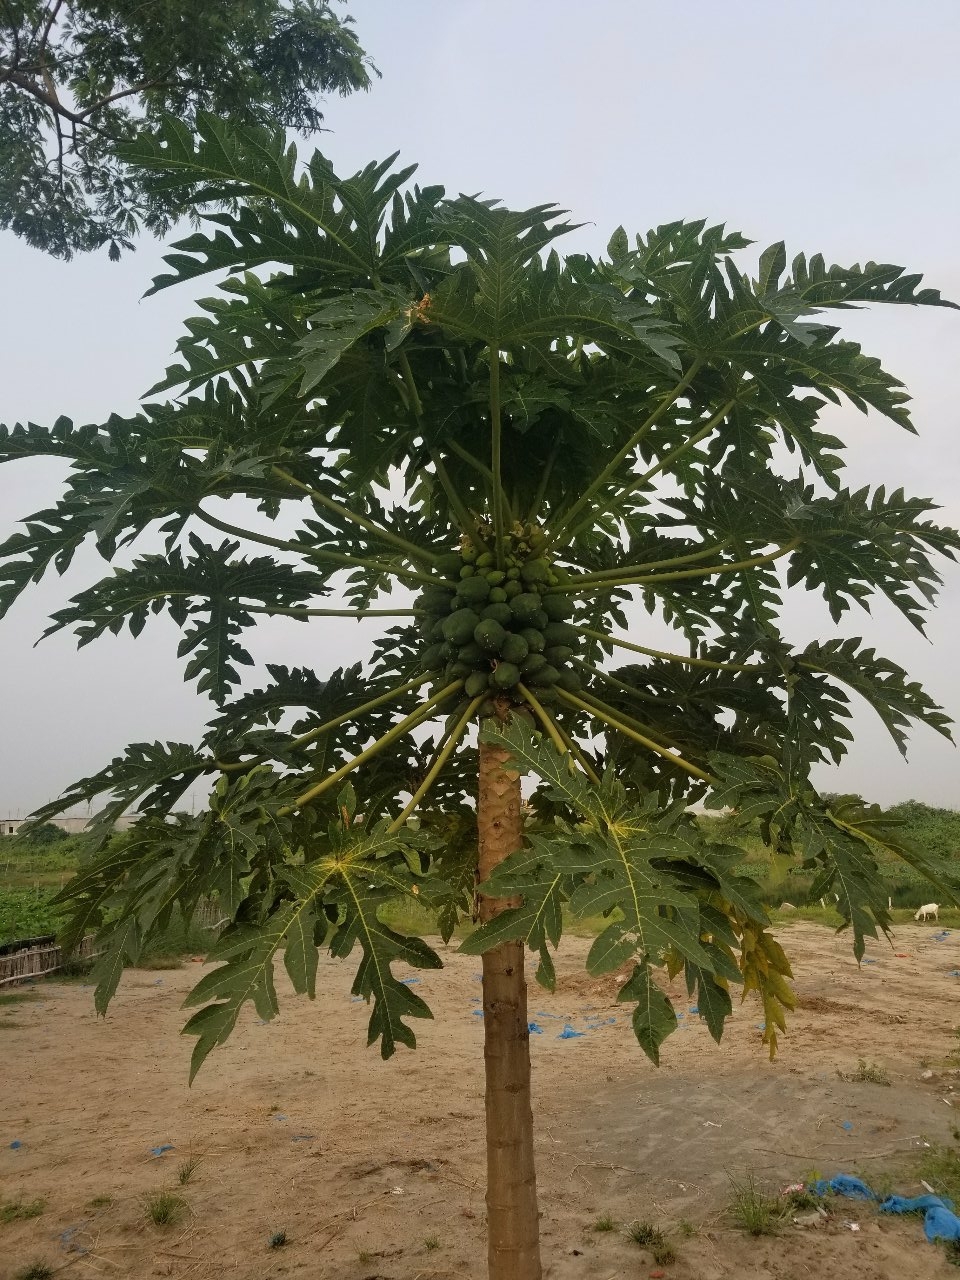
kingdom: Plantae
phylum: Tracheophyta
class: Magnoliopsida
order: Brassicales
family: Caricaceae
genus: Carica
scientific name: Carica papaya
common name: Papaya
